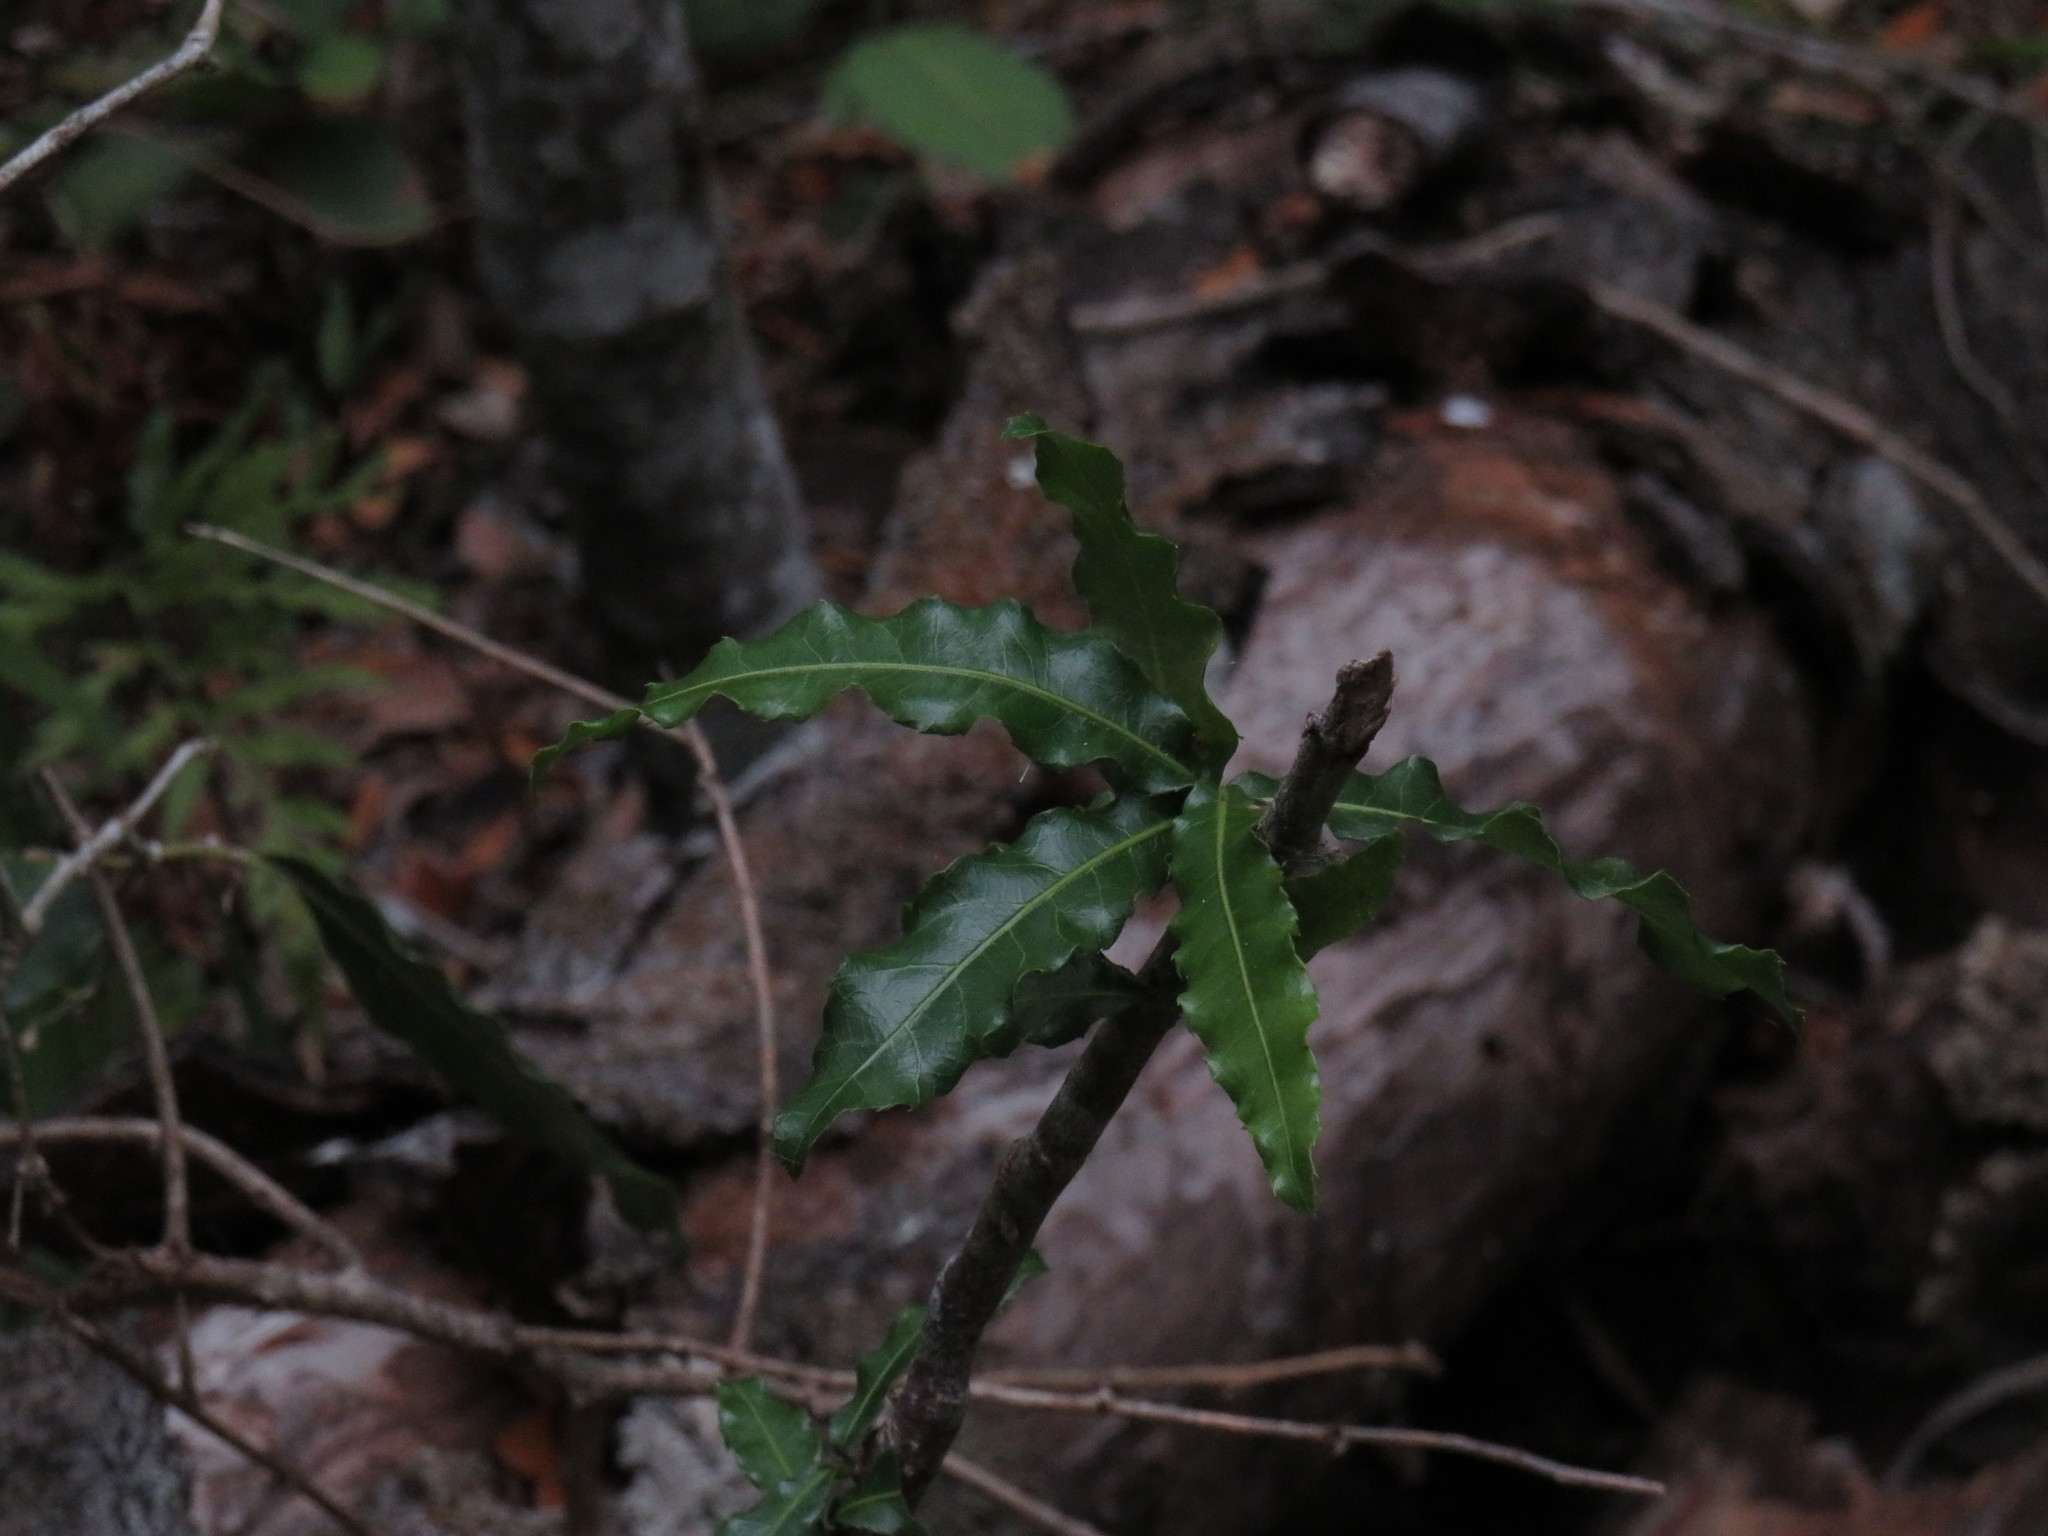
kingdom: Plantae
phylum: Tracheophyta
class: Magnoliopsida
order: Malpighiales
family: Ochnaceae
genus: Ochna
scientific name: Ochna arborea
